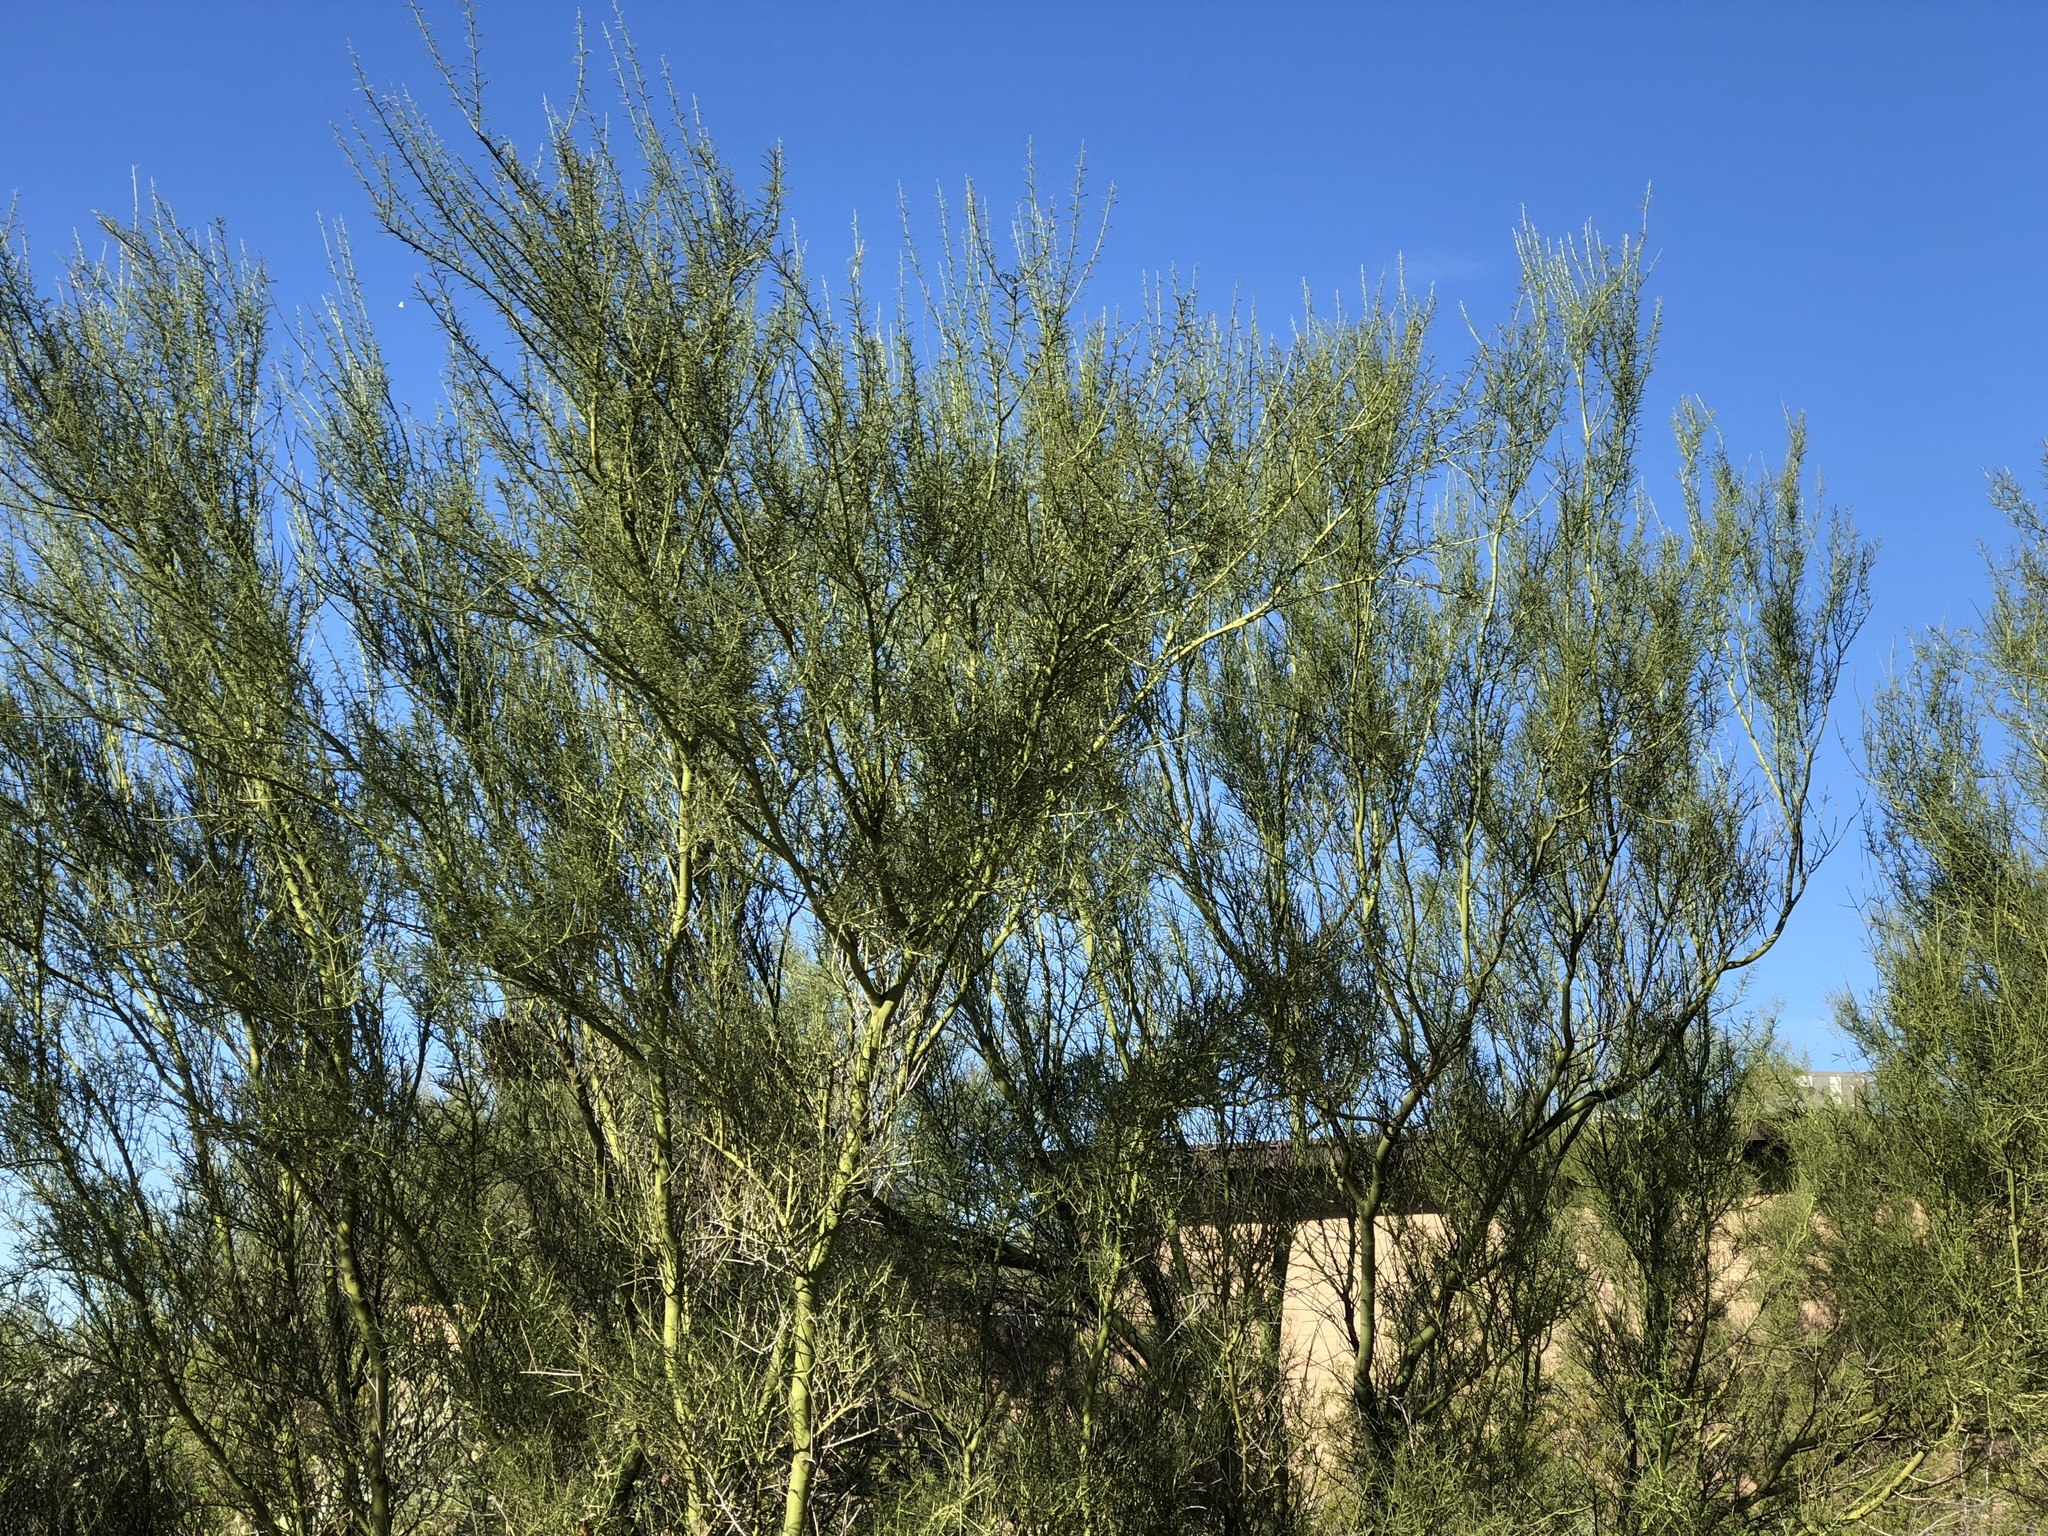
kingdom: Plantae
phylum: Tracheophyta
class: Magnoliopsida
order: Fabales
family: Fabaceae
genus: Parkinsonia
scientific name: Parkinsonia microphylla
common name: Yellow paloverde
